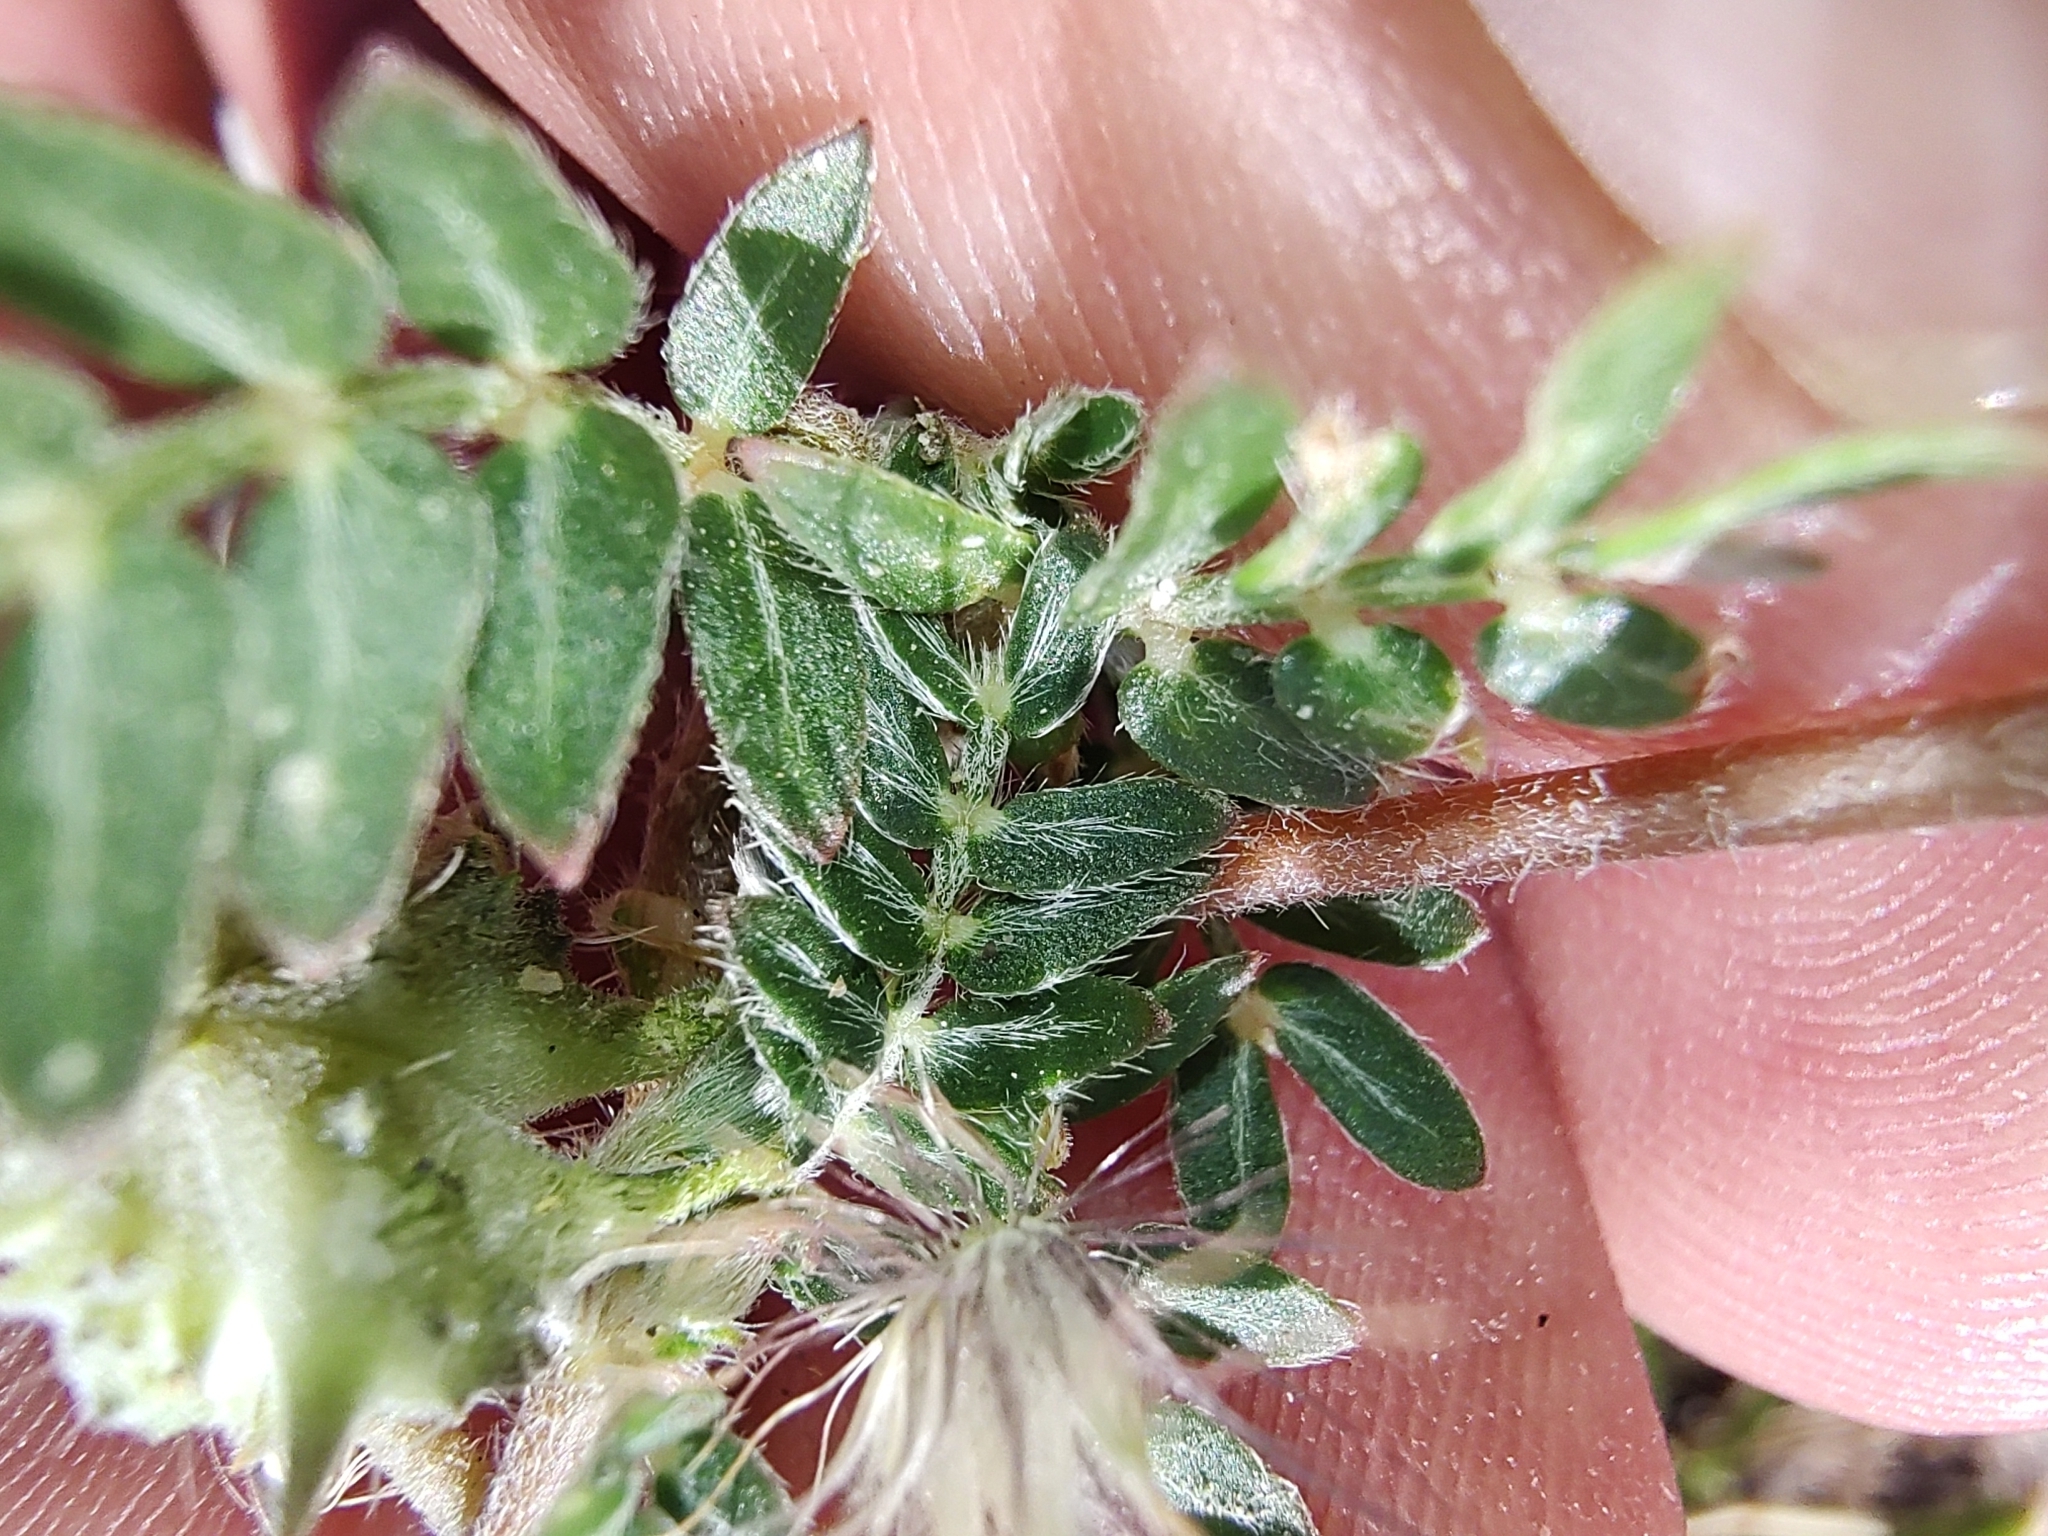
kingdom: Plantae
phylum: Tracheophyta
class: Magnoliopsida
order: Zygophyllales
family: Zygophyllaceae
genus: Tribulus
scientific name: Tribulus terrestris
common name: Puncturevine
